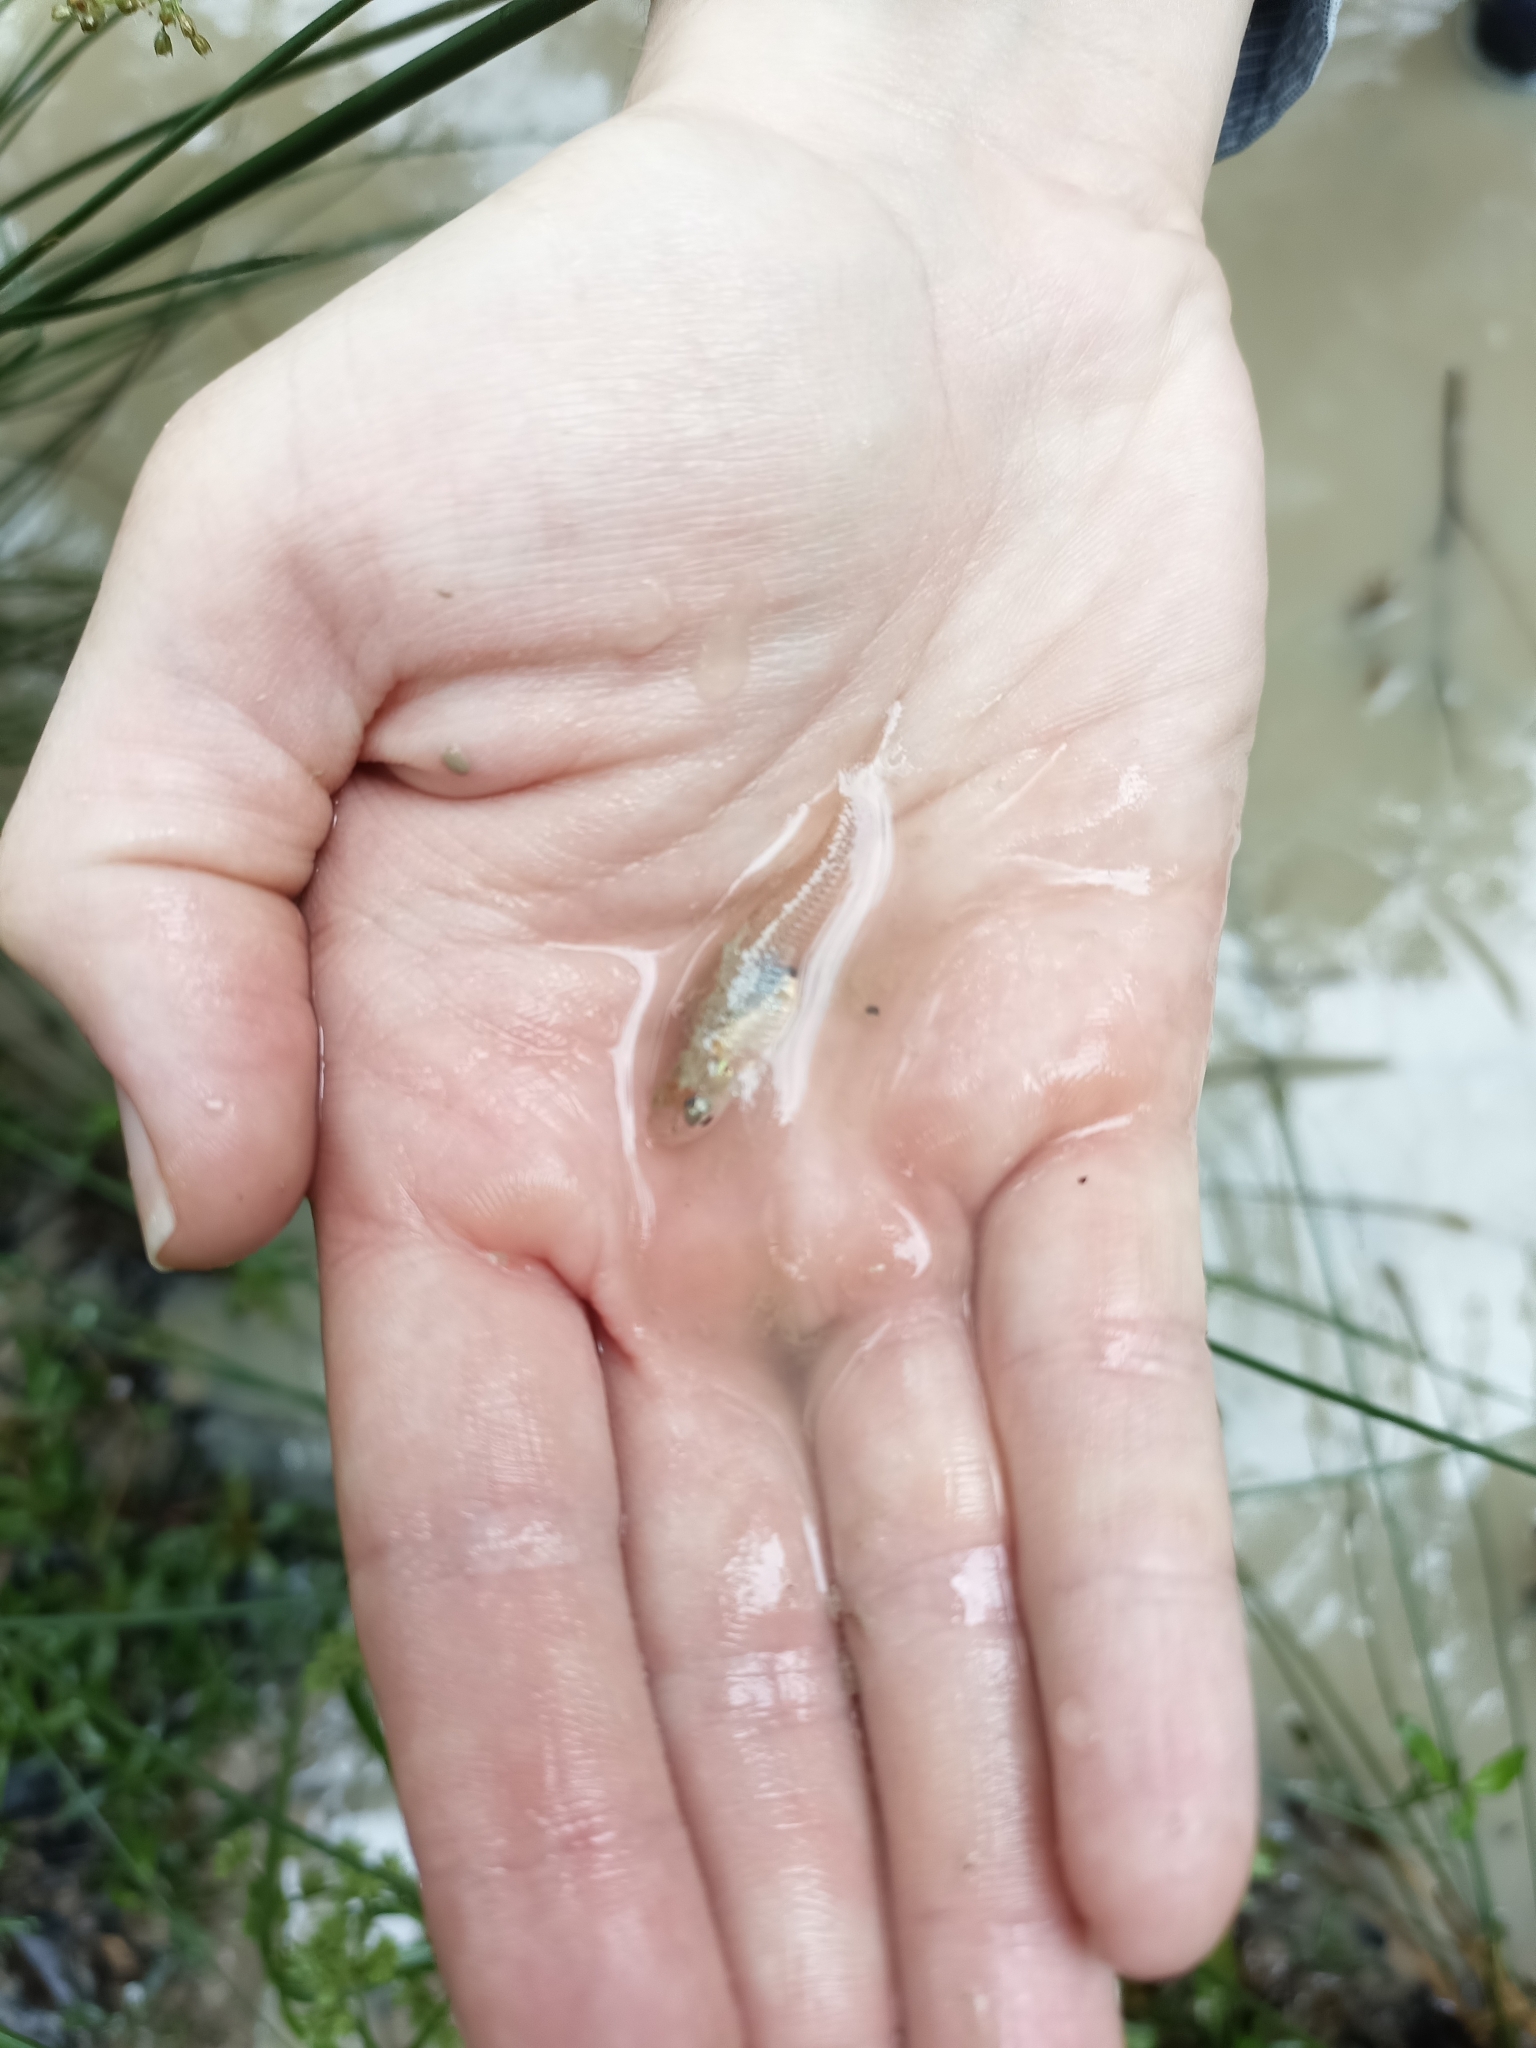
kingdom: Animalia
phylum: Chordata
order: Cyprinodontiformes
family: Poeciliidae
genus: Gambusia
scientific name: Gambusia affinis
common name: Mosquitofish
